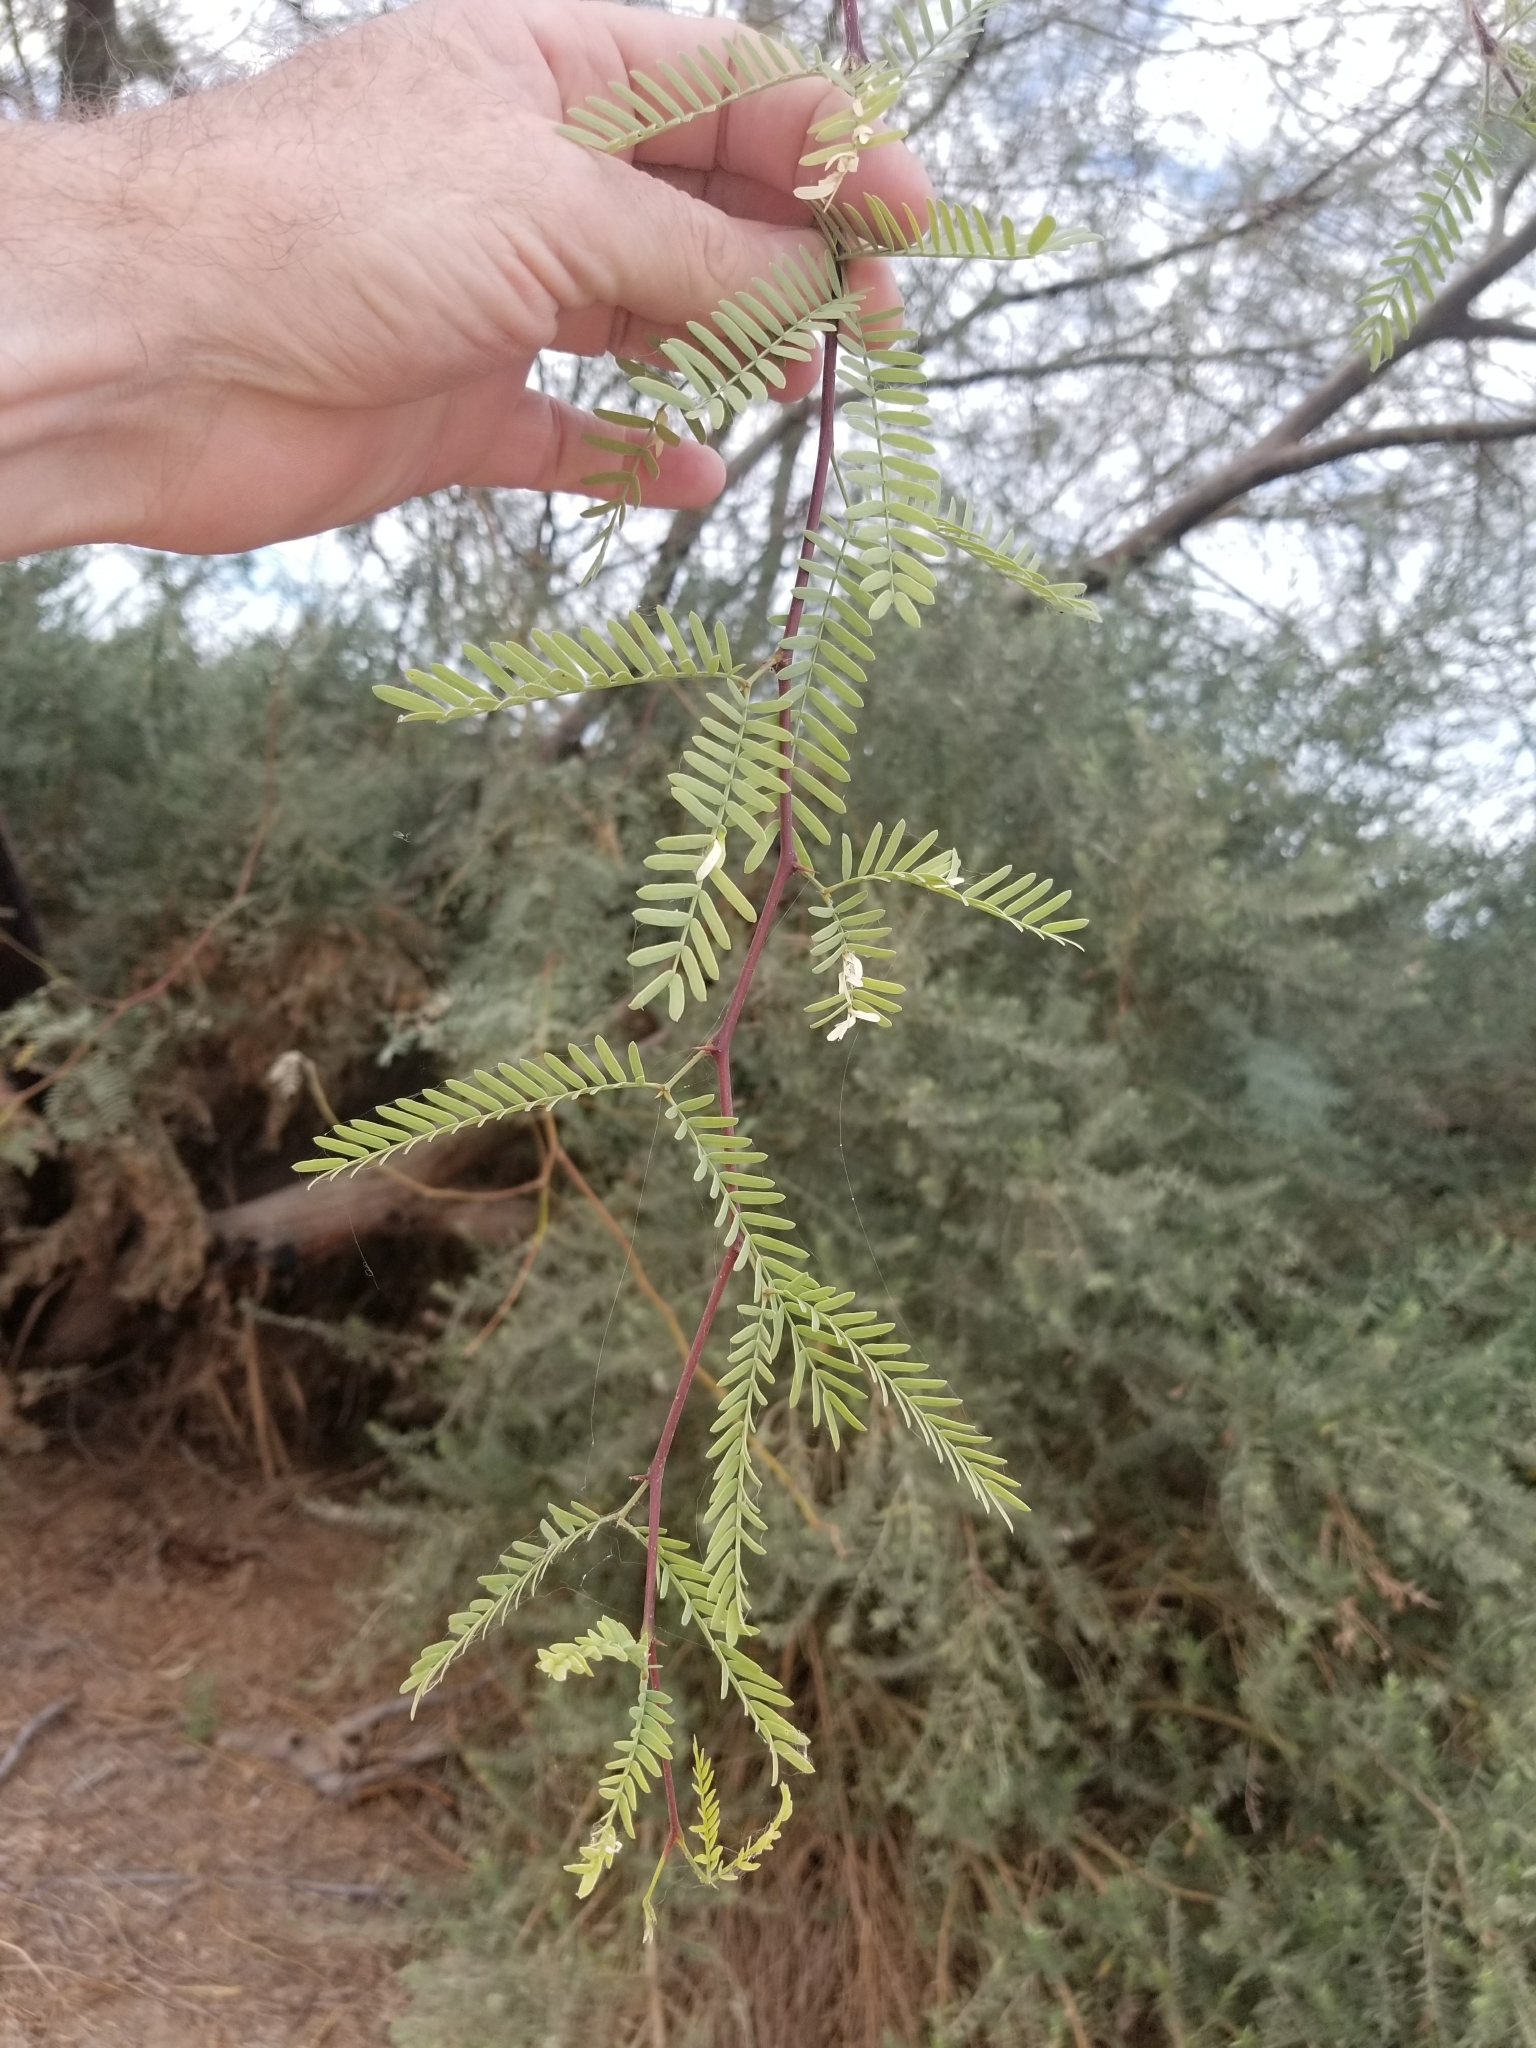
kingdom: Plantae
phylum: Tracheophyta
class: Magnoliopsida
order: Fabales
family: Fabaceae
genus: Prosopis
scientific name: Prosopis pubescens
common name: Screw-bean
